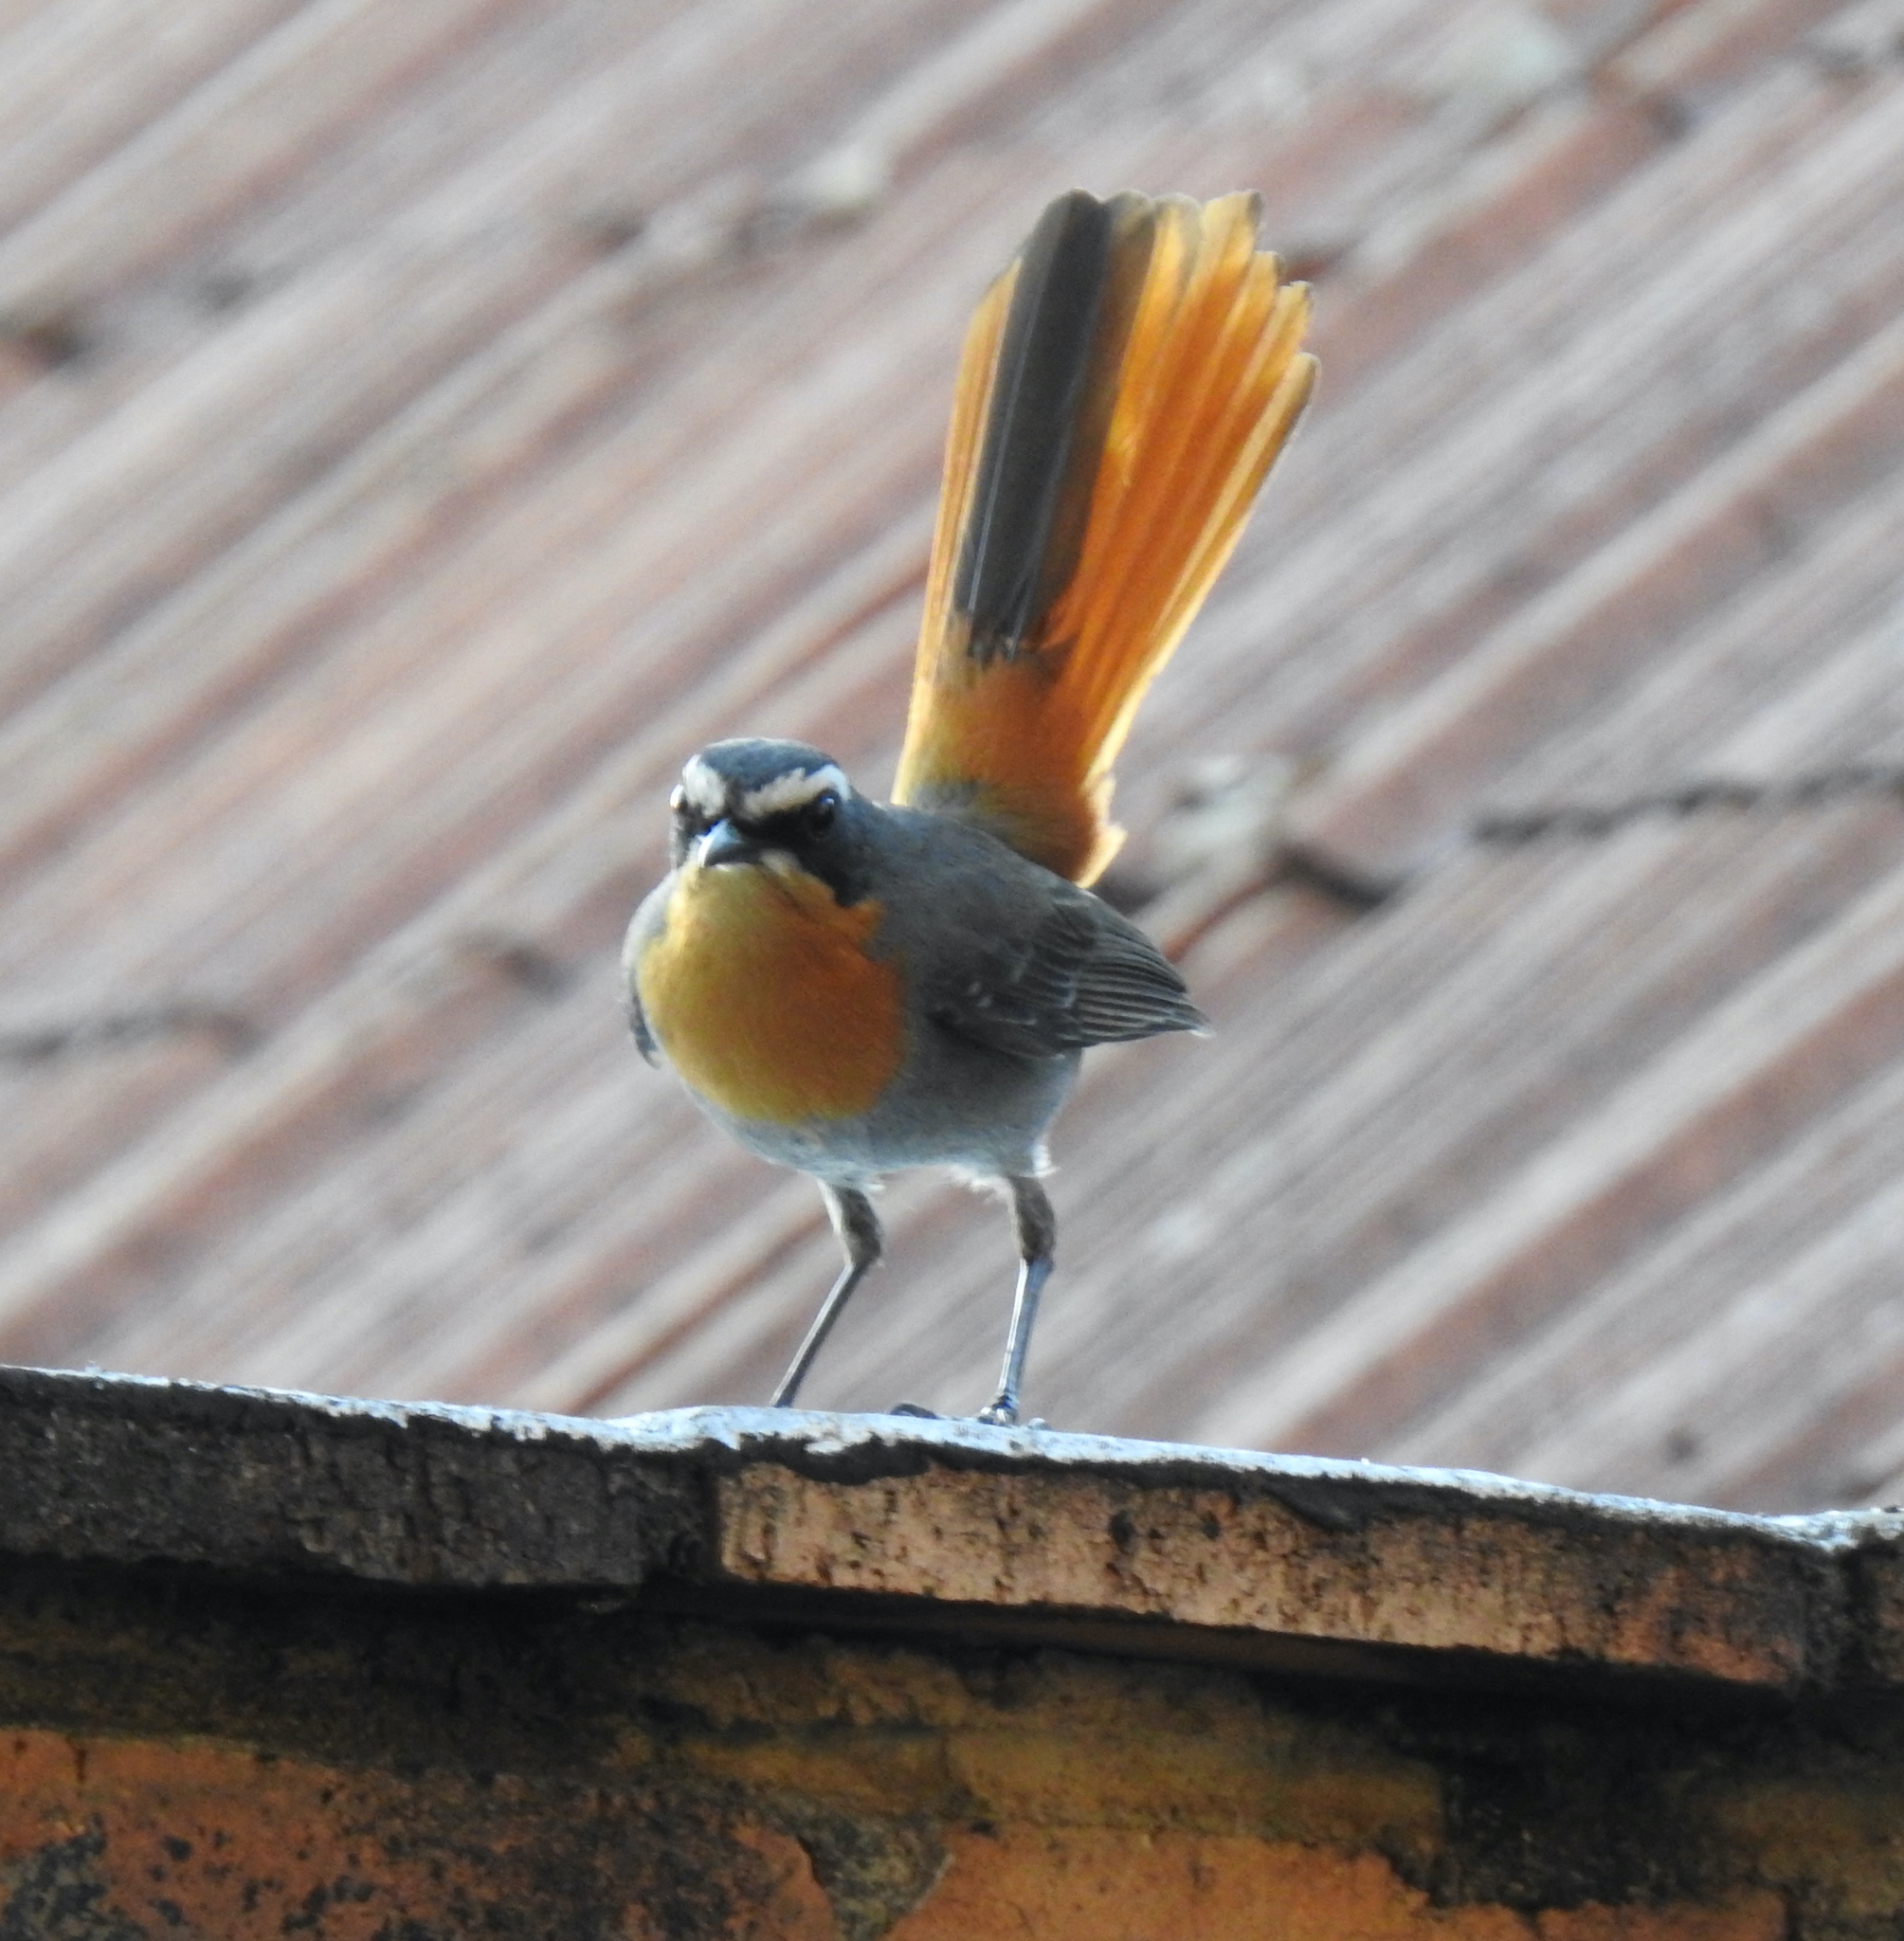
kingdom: Animalia
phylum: Chordata
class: Aves
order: Passeriformes
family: Muscicapidae
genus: Cossypha
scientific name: Cossypha caffra
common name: Cape robin-chat
